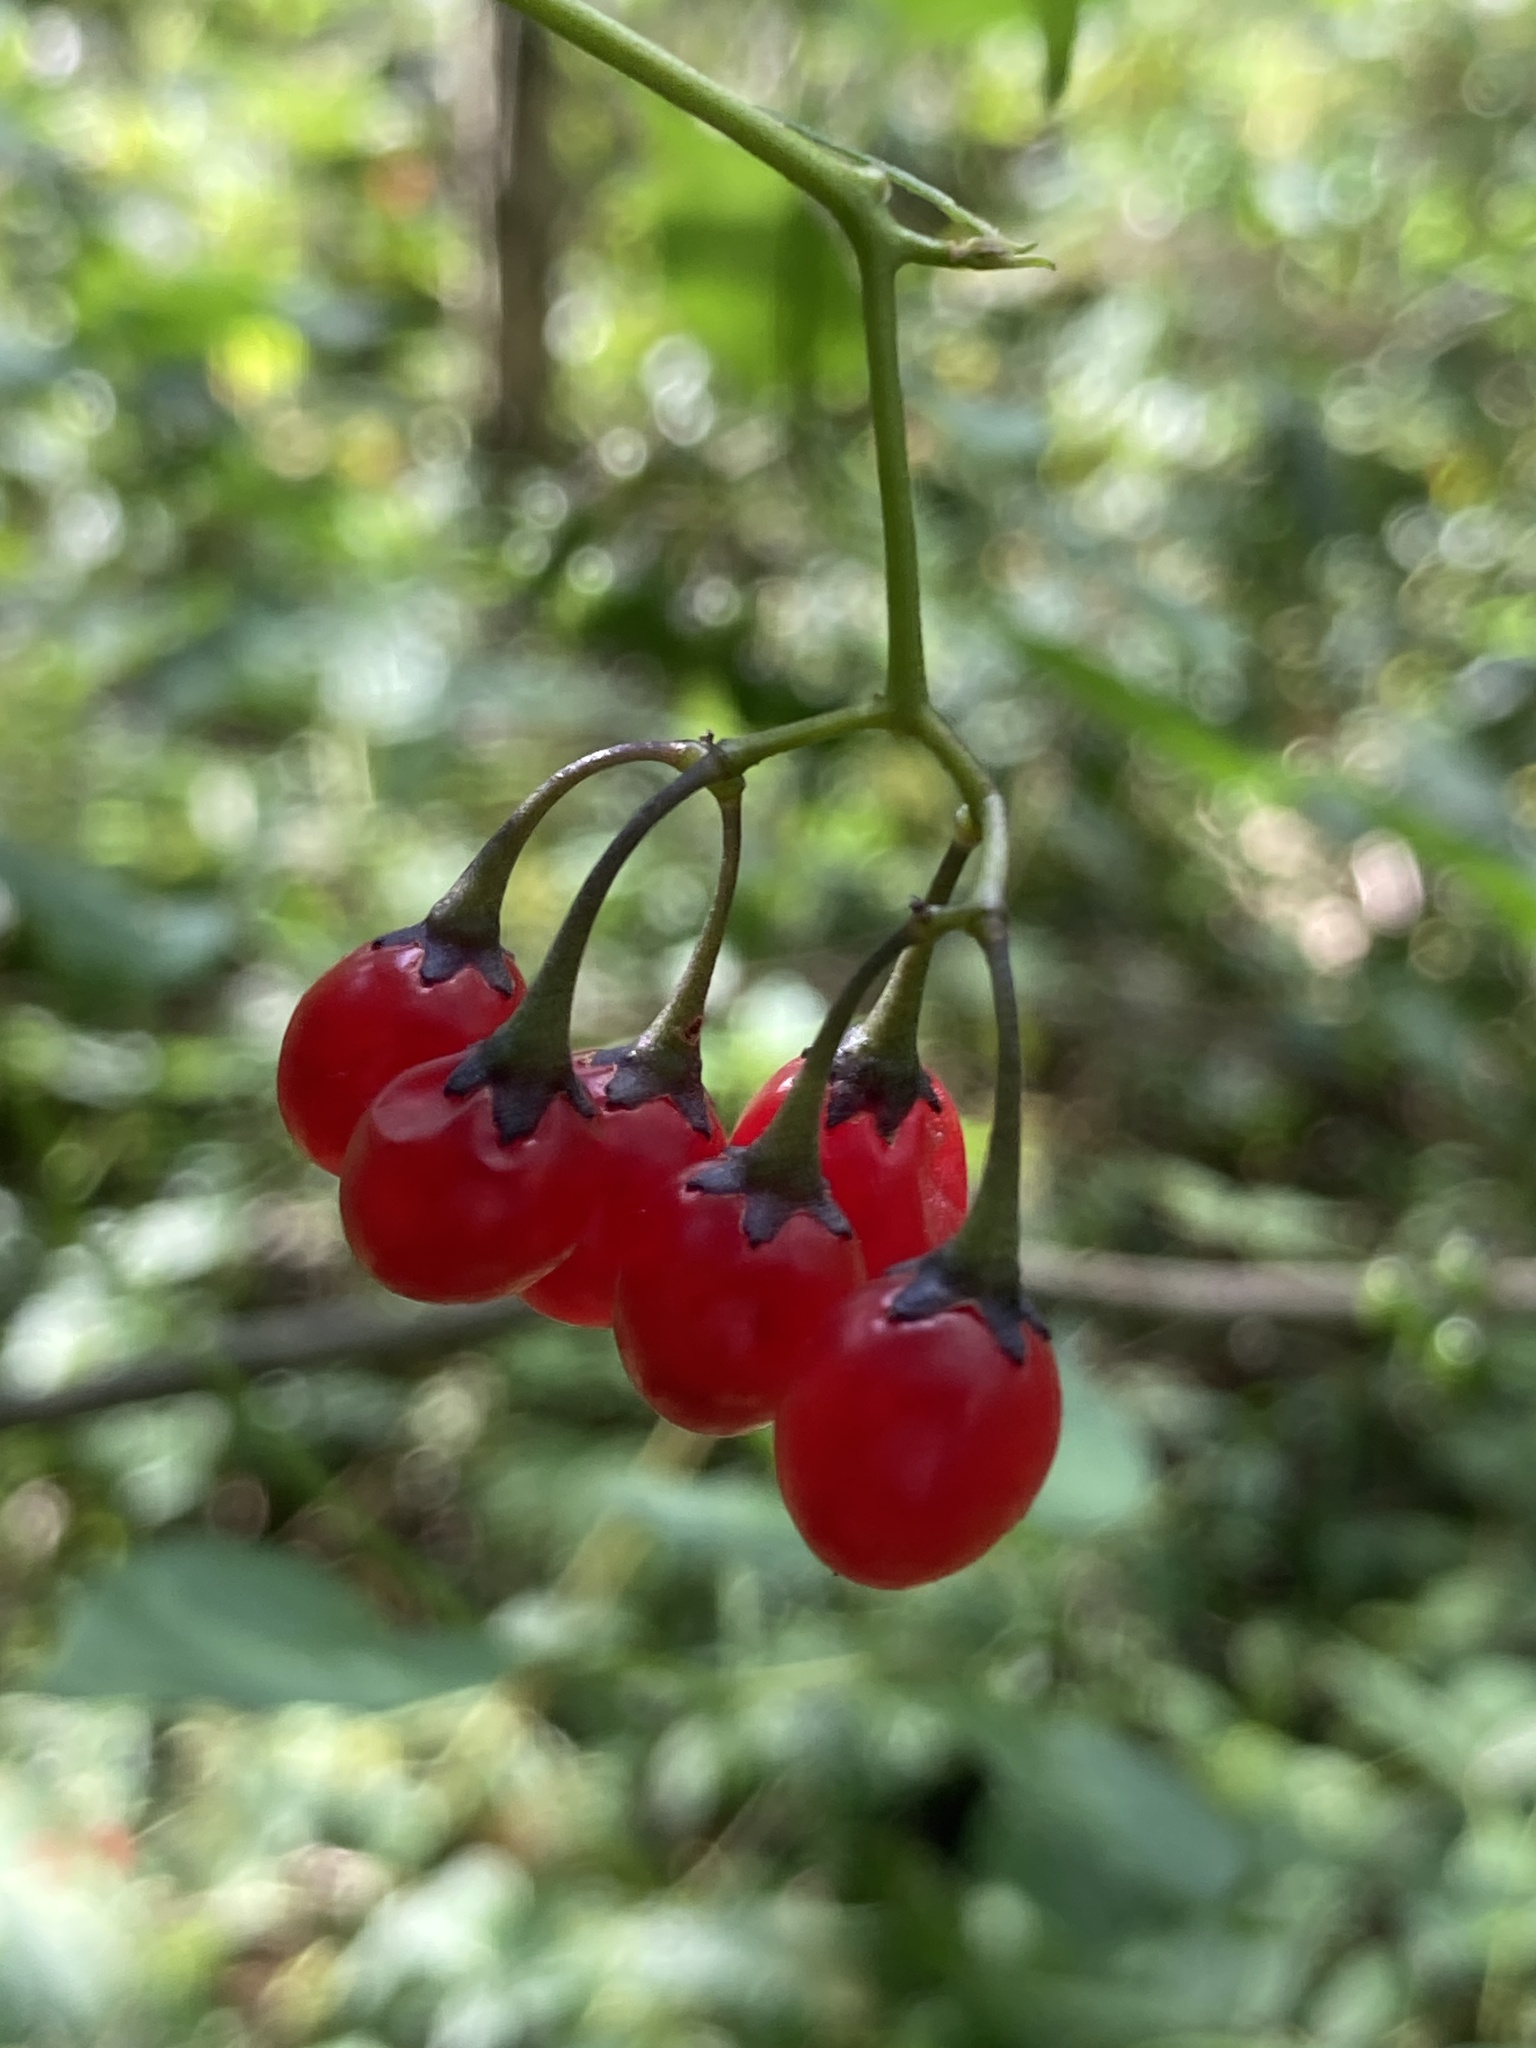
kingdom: Plantae
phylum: Tracheophyta
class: Magnoliopsida
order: Solanales
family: Solanaceae
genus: Solanum
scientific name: Solanum dulcamara
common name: Climbing nightshade
